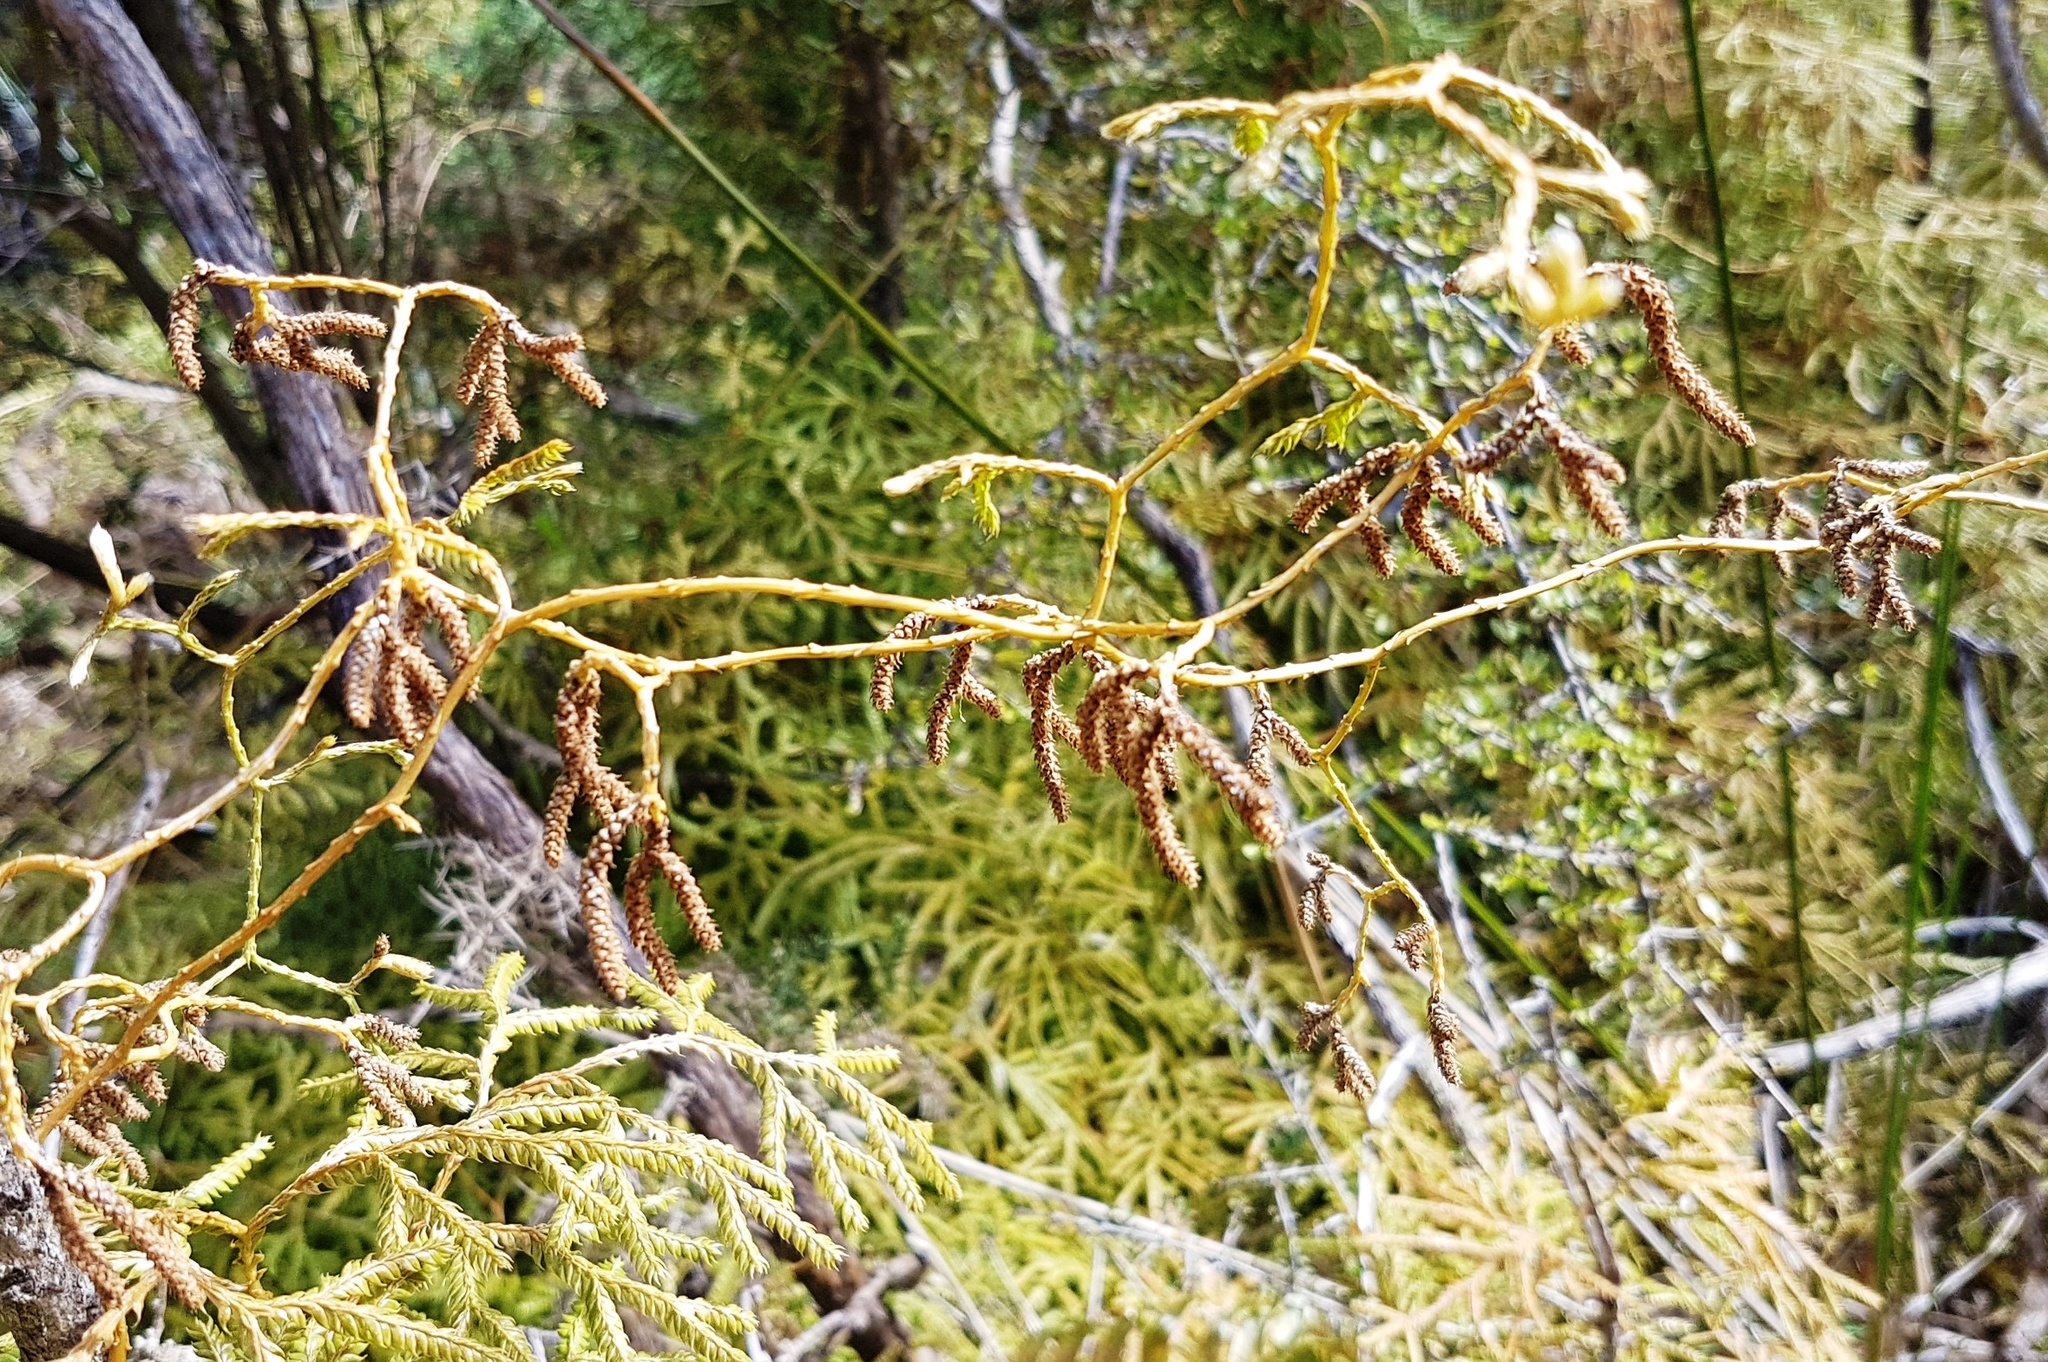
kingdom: Plantae
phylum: Tracheophyta
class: Lycopodiopsida
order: Lycopodiales
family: Lycopodiaceae
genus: Lycopodium
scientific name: Lycopodium volubile
